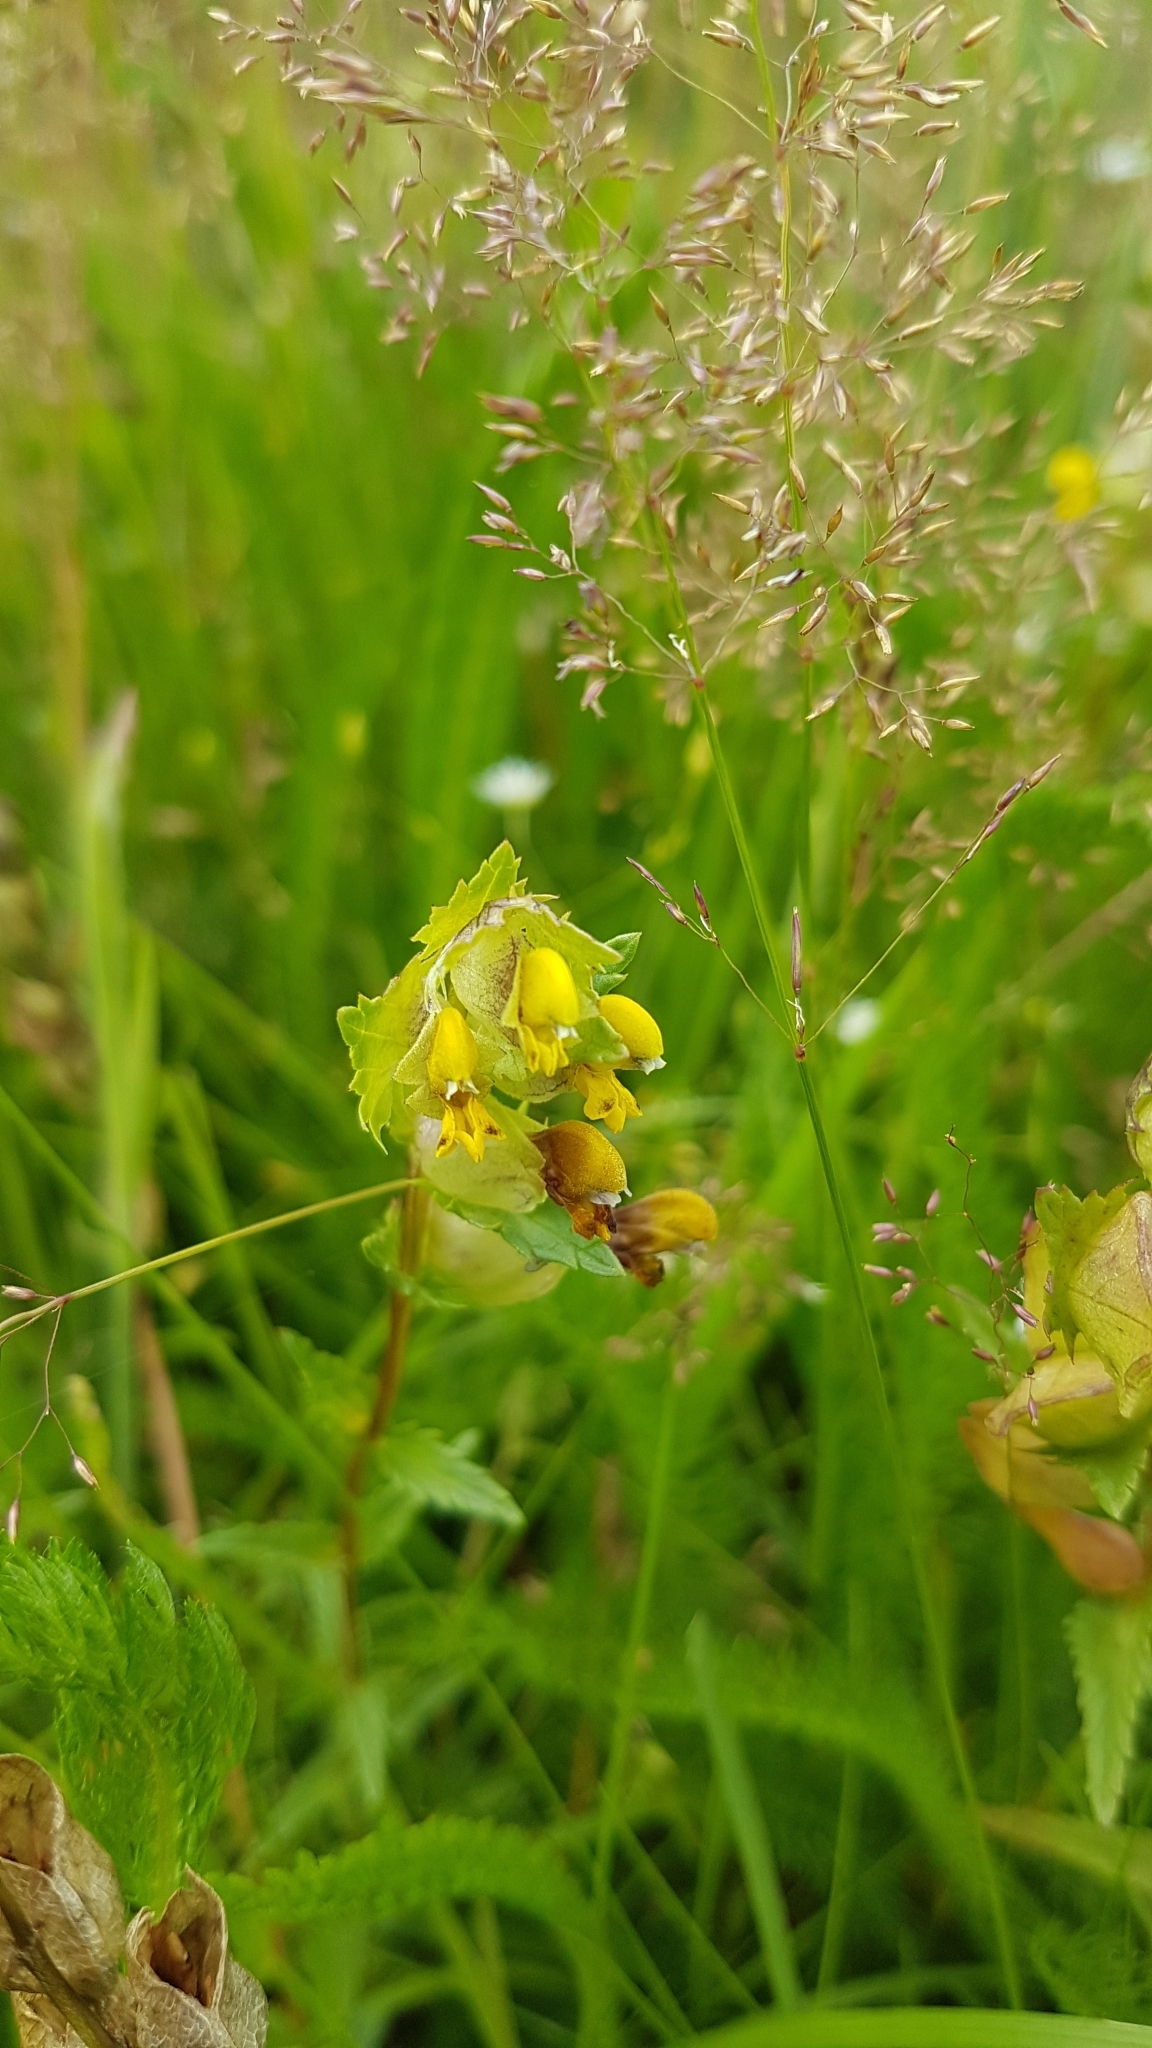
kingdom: Plantae
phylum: Tracheophyta
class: Magnoliopsida
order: Lamiales
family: Orobanchaceae
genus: Rhinanthus
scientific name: Rhinanthus minor
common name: Yellow-rattle
